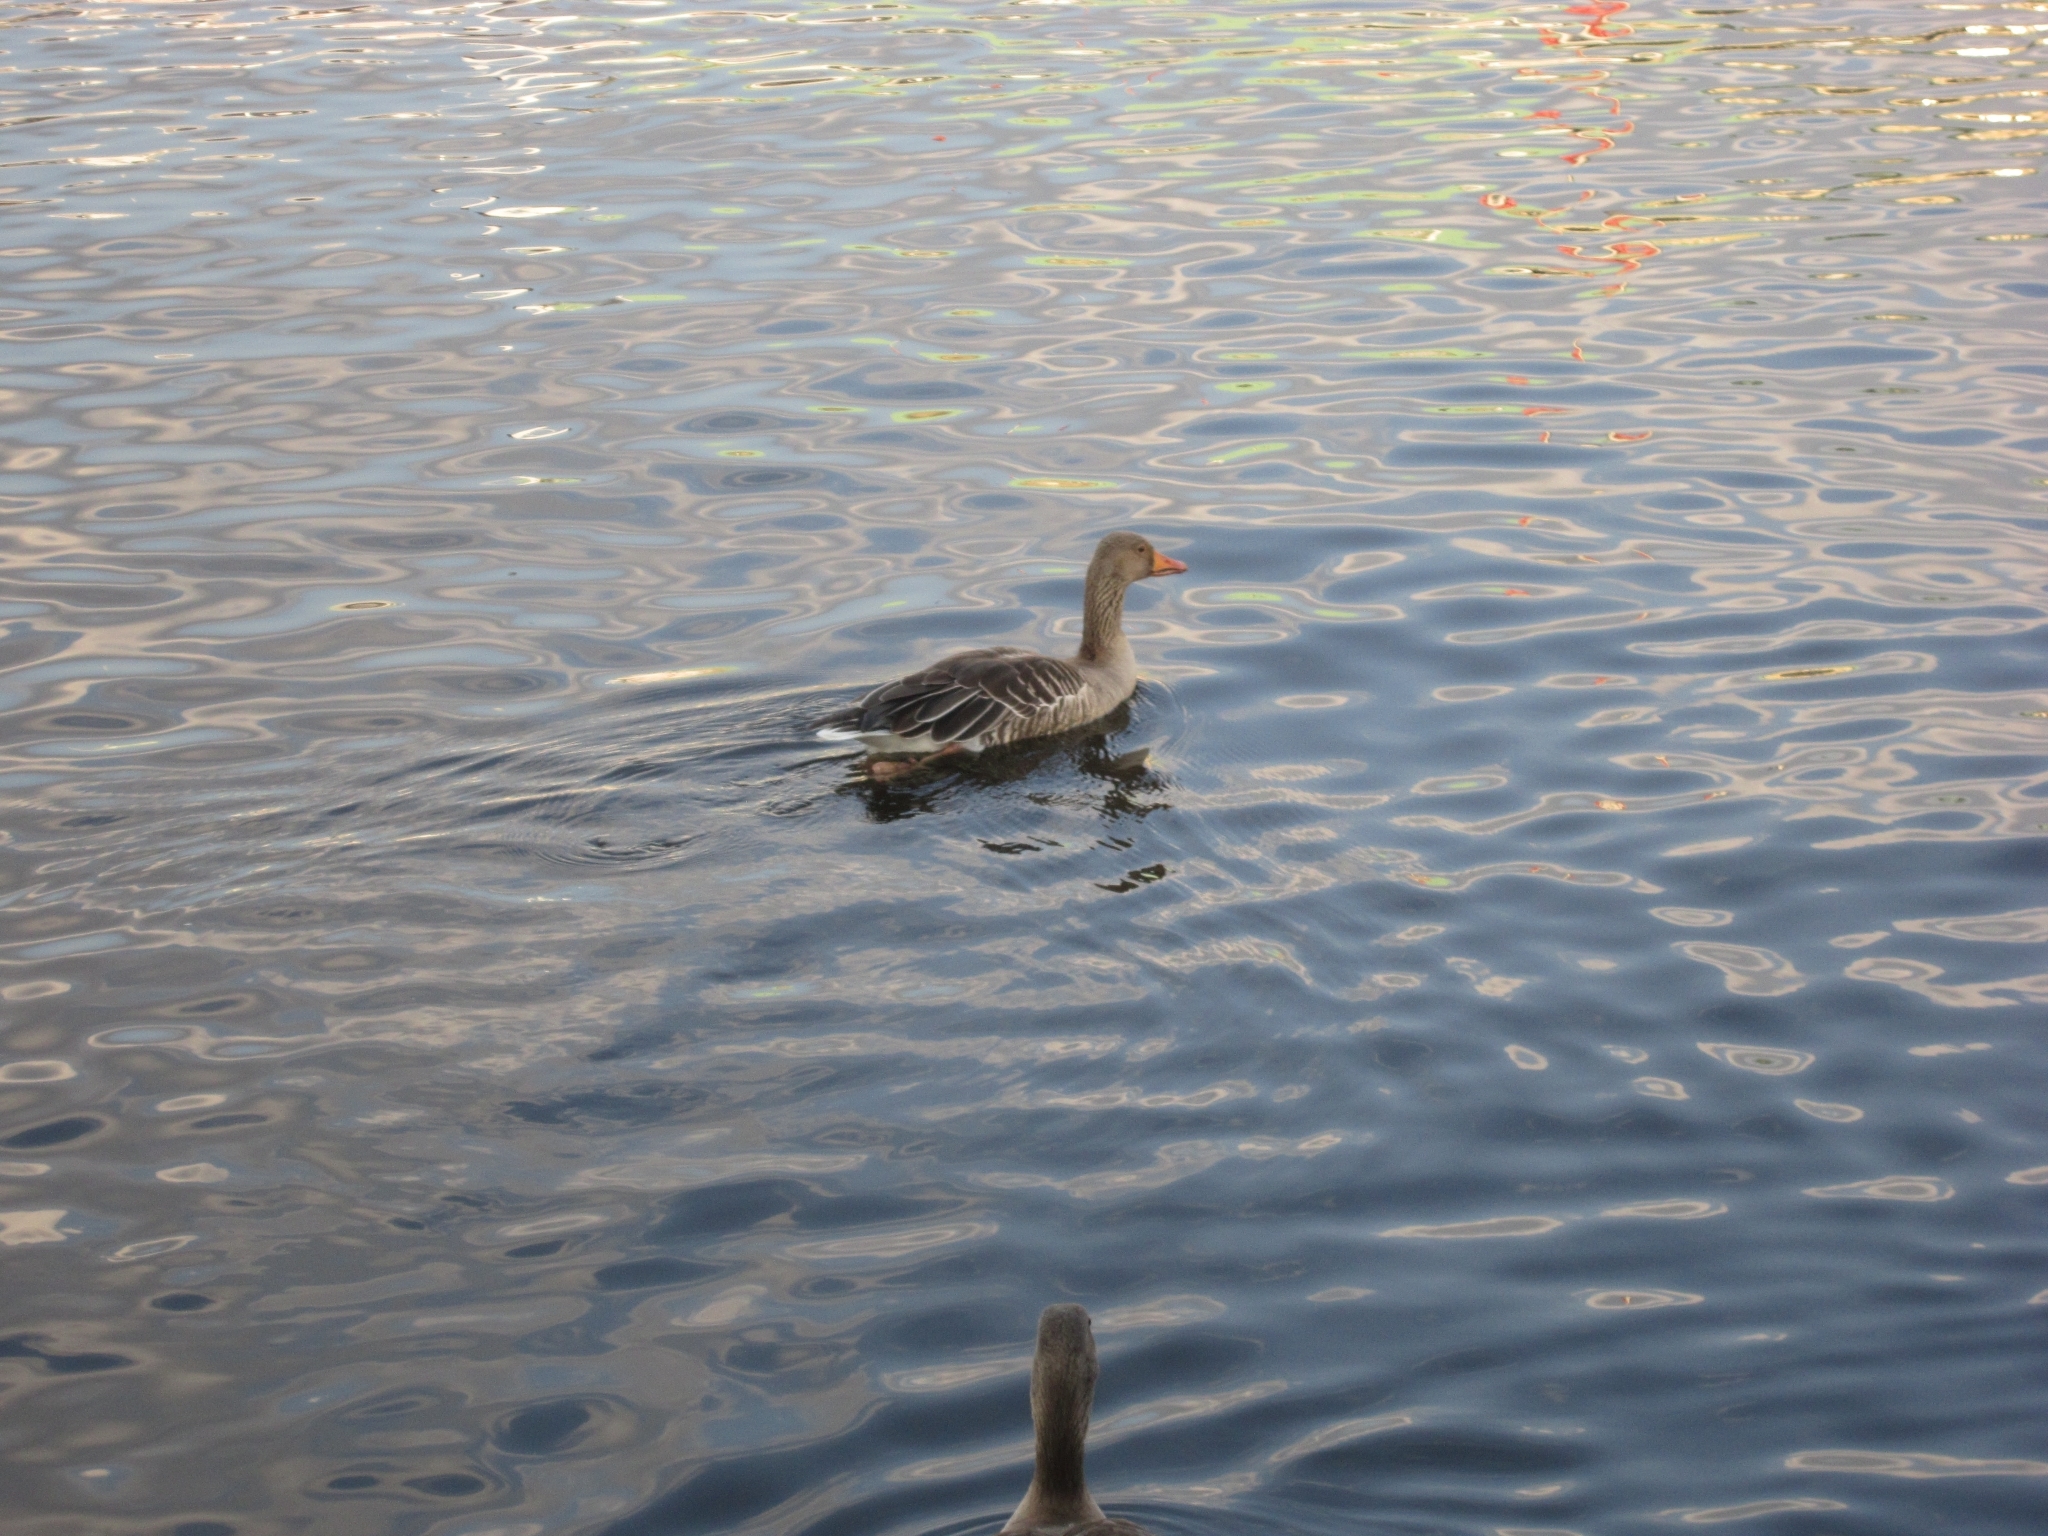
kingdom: Animalia
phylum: Chordata
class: Aves
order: Anseriformes
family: Anatidae
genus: Anser
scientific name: Anser anser
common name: Greylag goose
